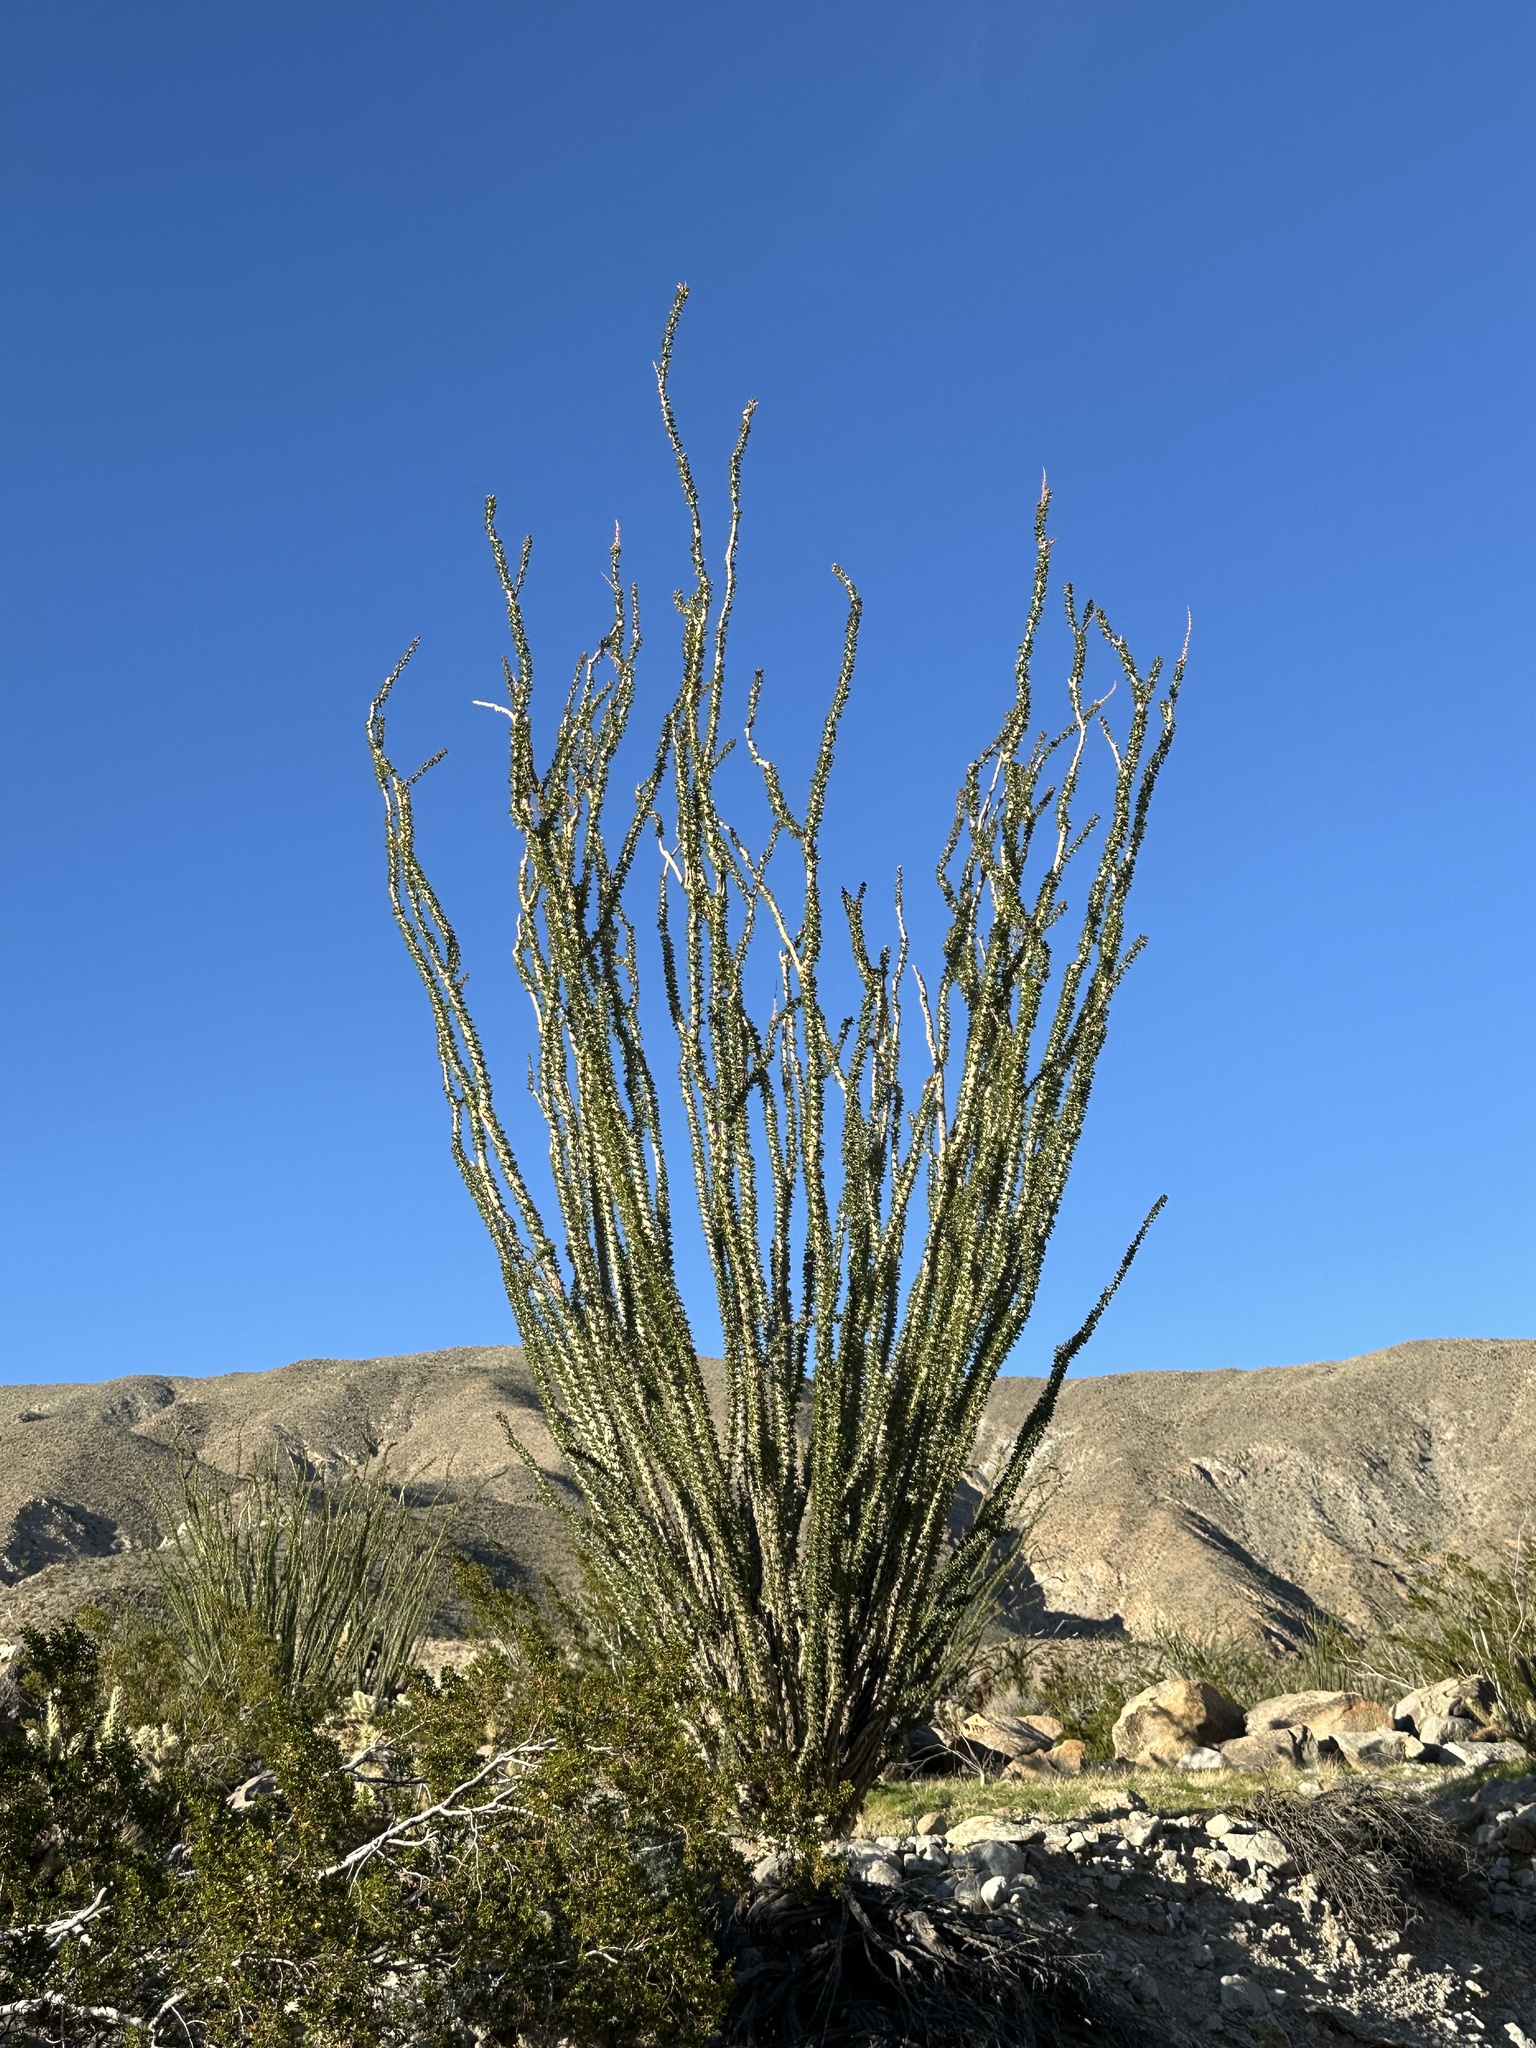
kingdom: Plantae
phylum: Tracheophyta
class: Magnoliopsida
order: Ericales
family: Fouquieriaceae
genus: Fouquieria
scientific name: Fouquieria splendens
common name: Vine-cactus
